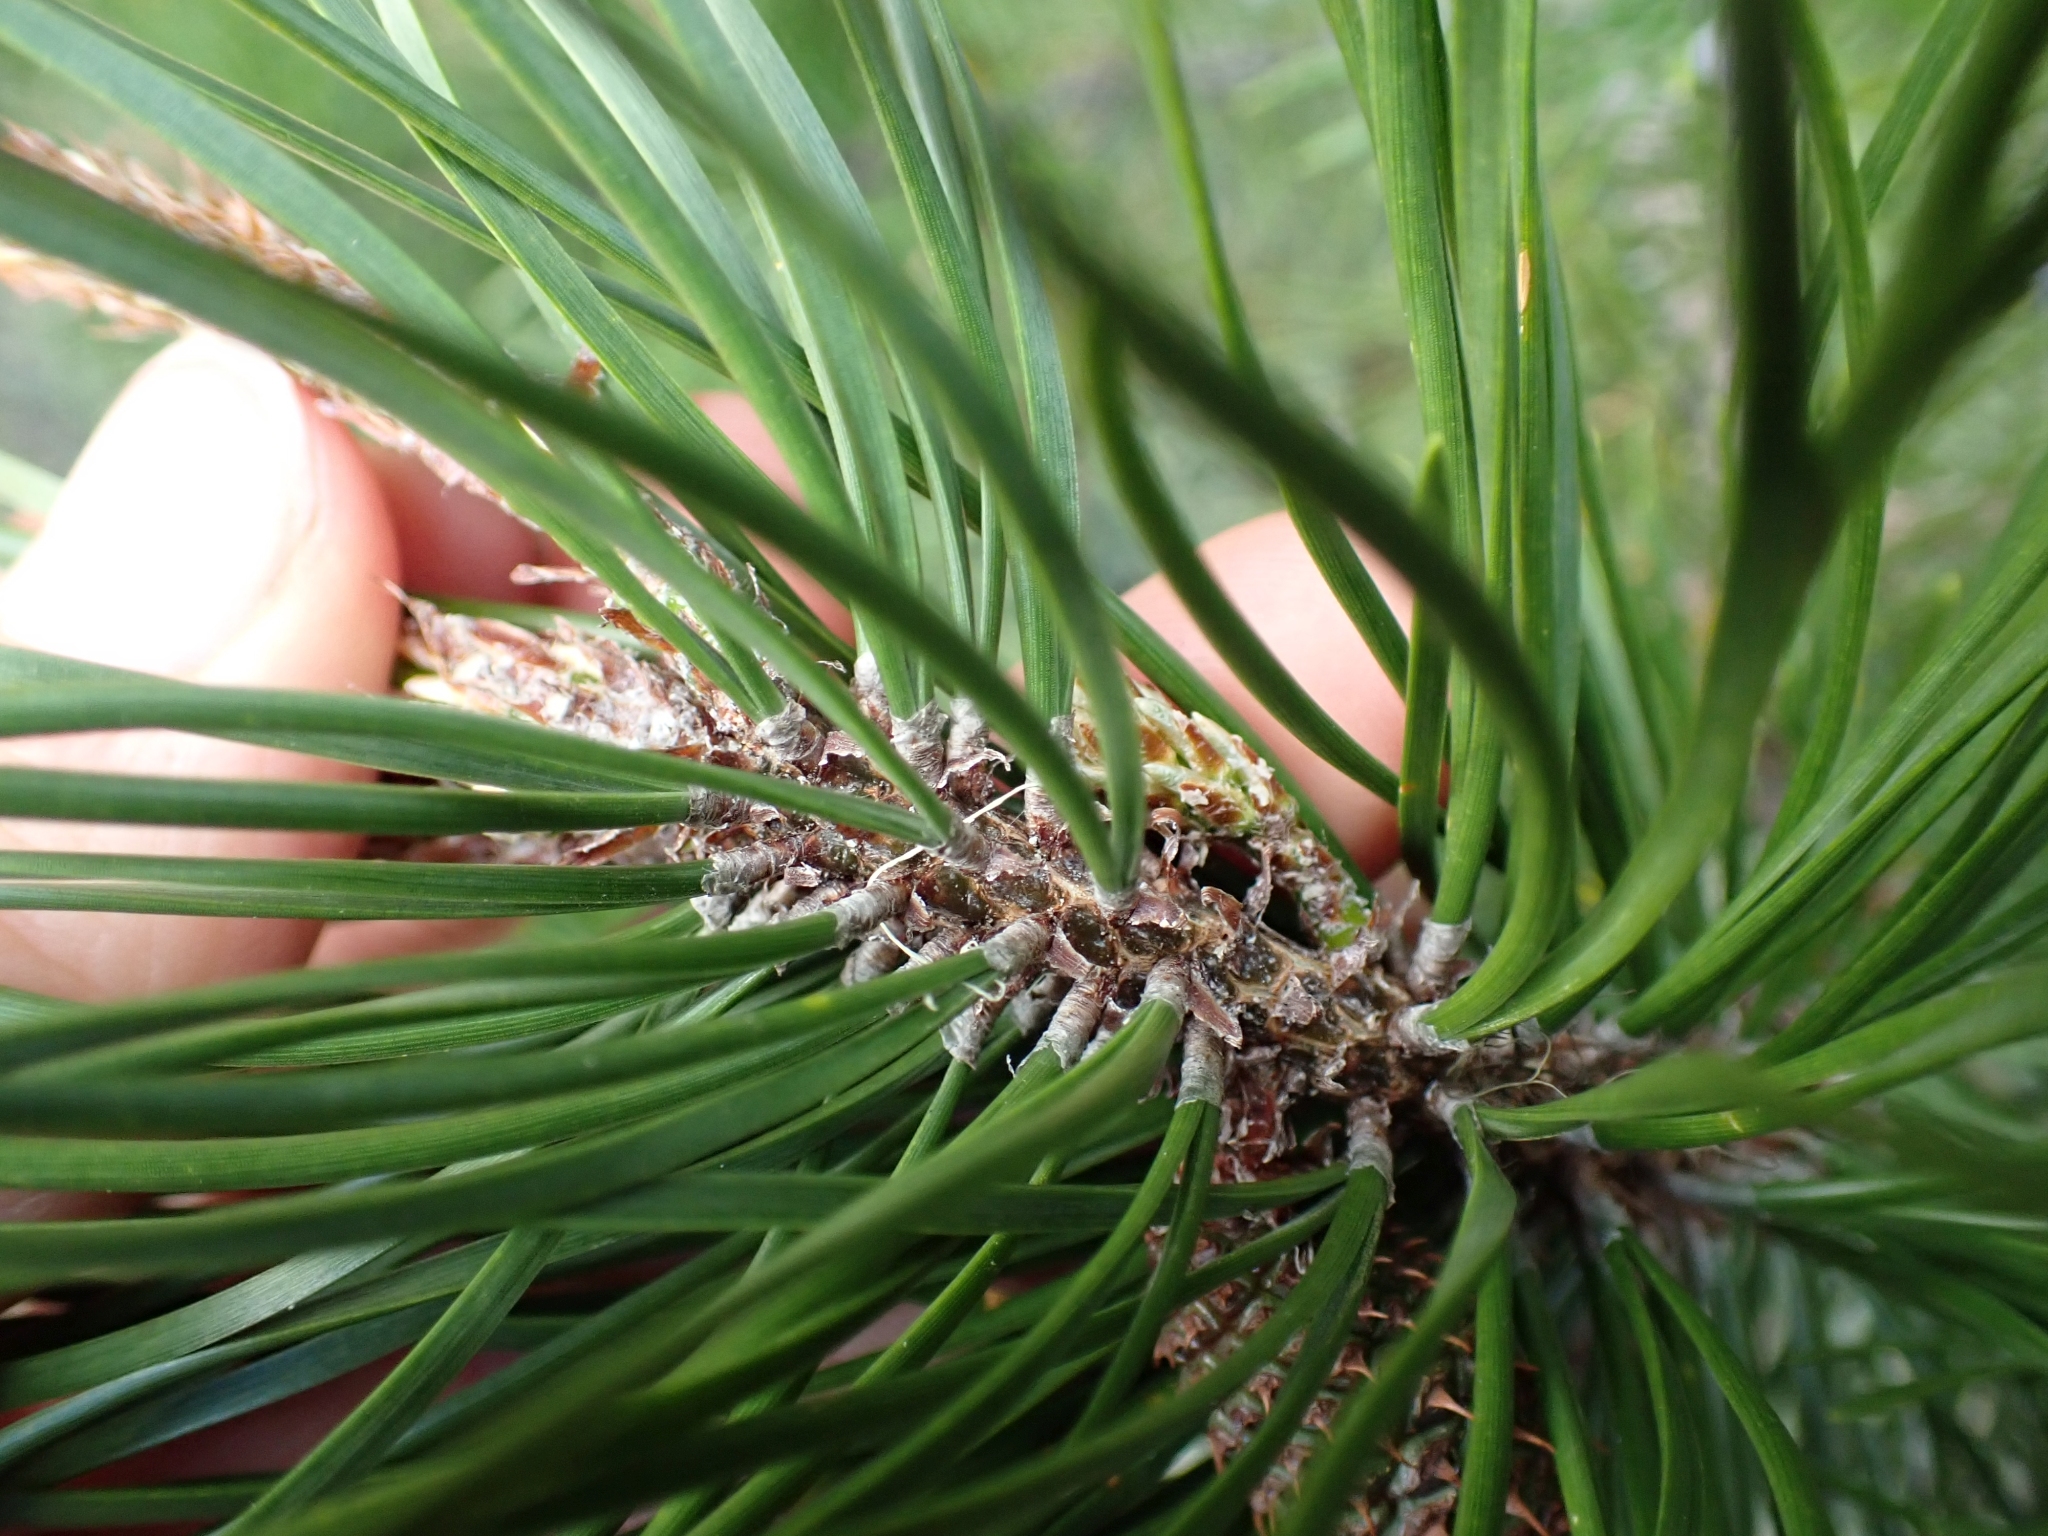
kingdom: Plantae
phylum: Tracheophyta
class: Pinopsida
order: Pinales
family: Pinaceae
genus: Pinus
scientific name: Pinus contorta
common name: Lodgepole pine
